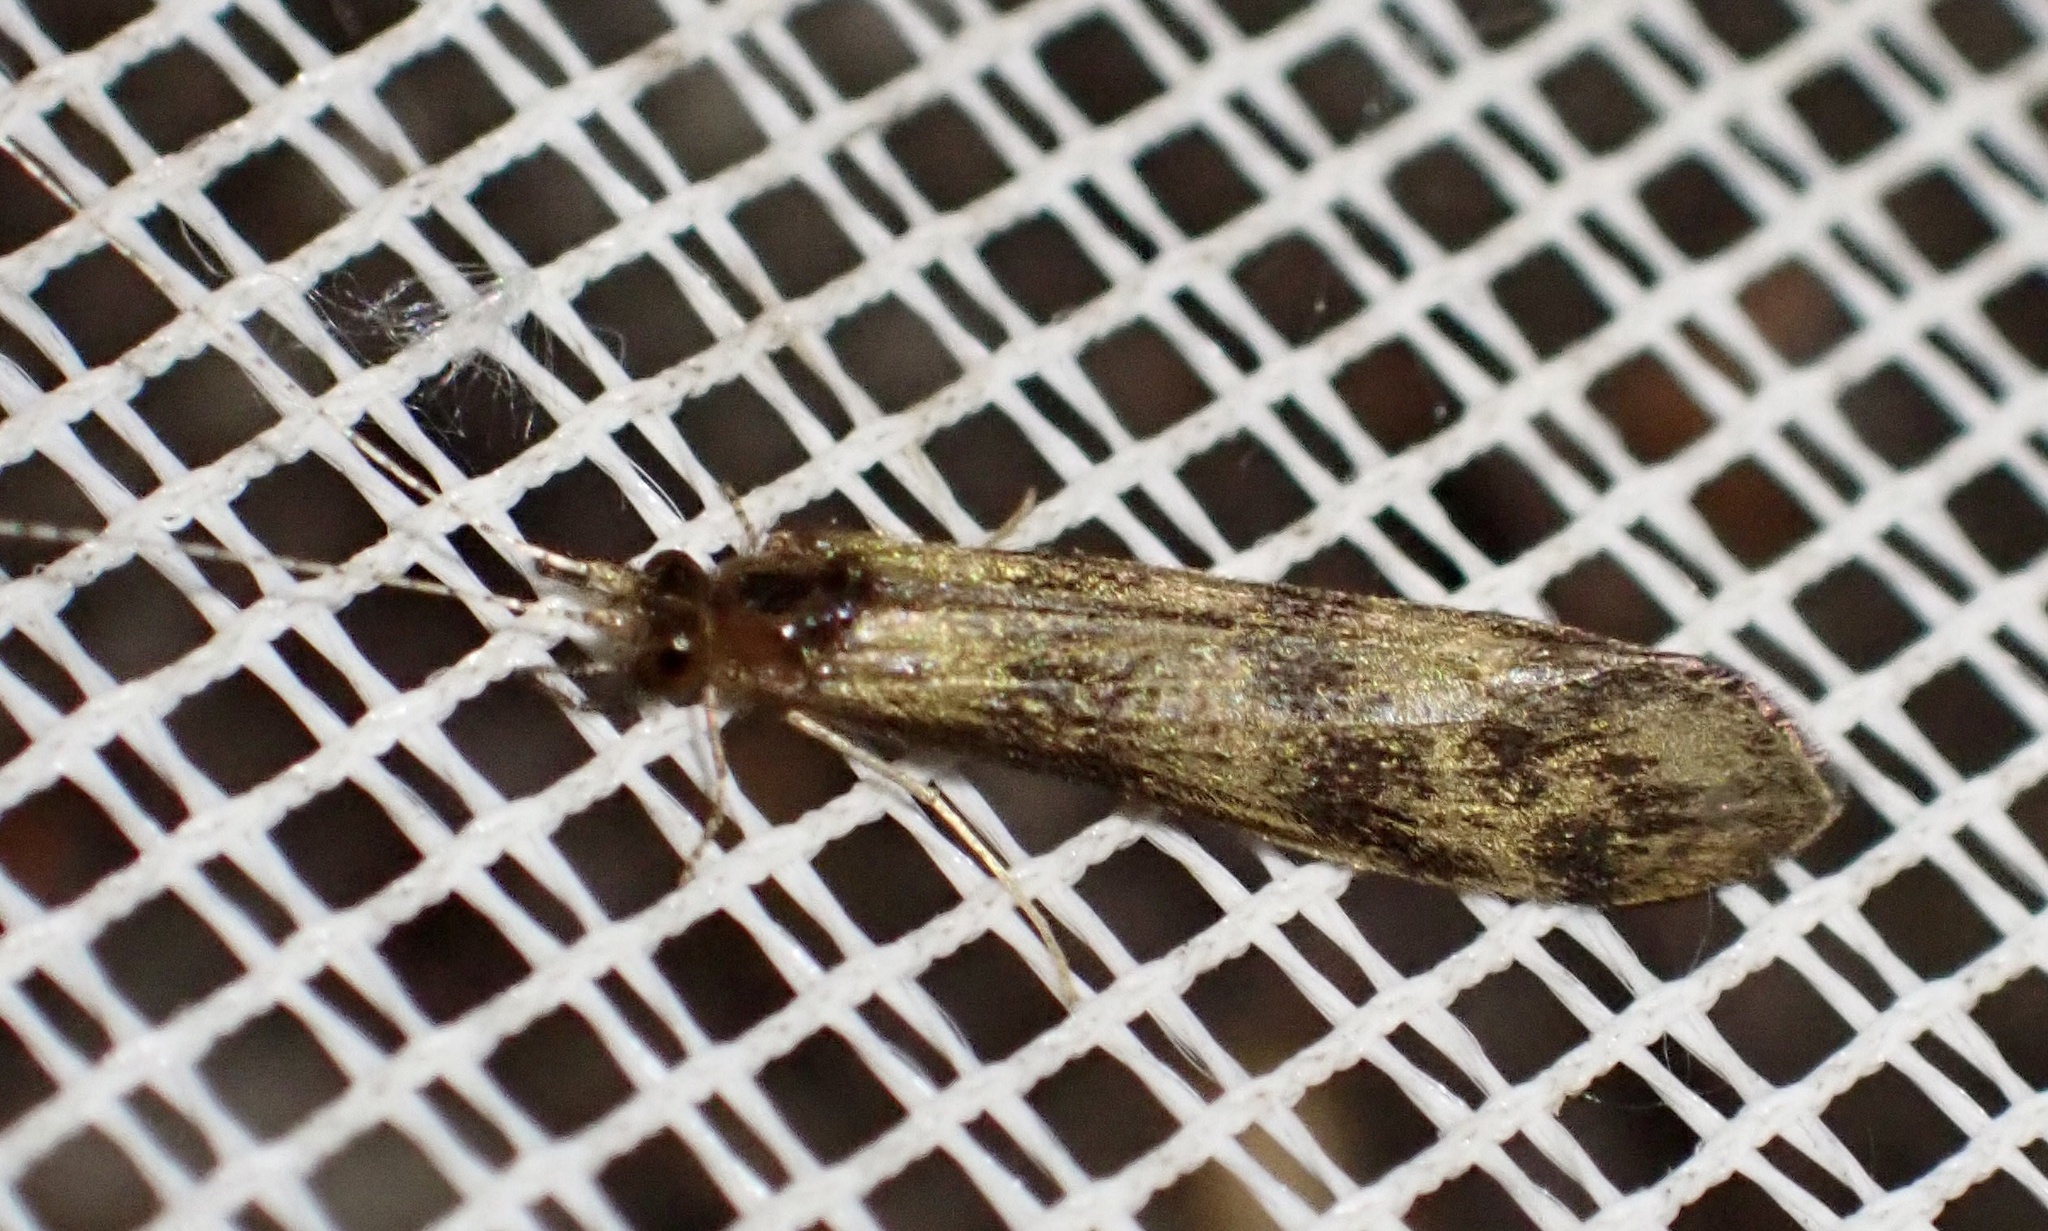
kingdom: Animalia
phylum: Arthropoda
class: Insecta
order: Trichoptera
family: Leptoceridae
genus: Mystacides
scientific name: Mystacides longicornis
